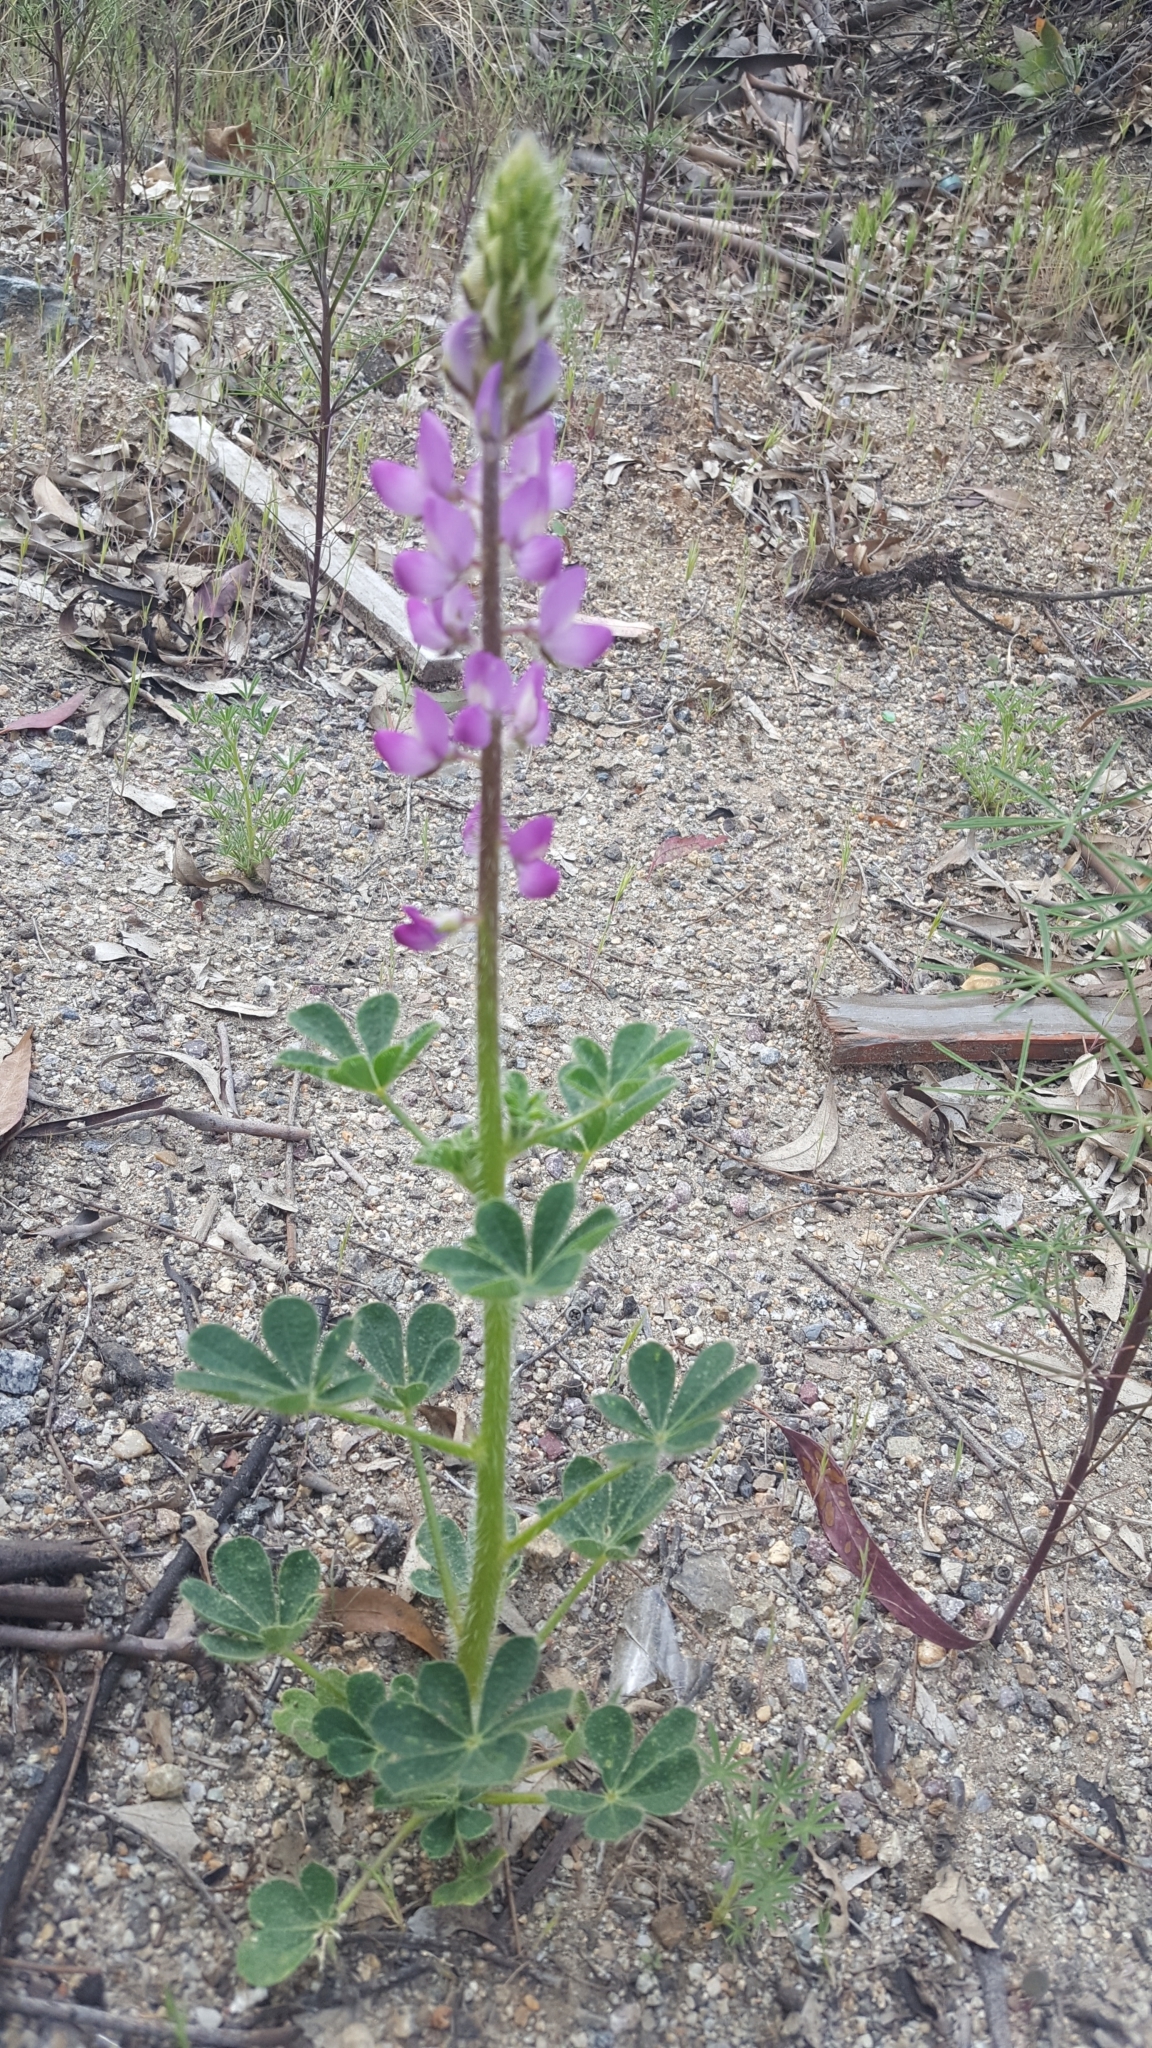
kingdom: Plantae
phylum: Tracheophyta
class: Magnoliopsida
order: Fabales
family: Fabaceae
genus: Lupinus
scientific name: Lupinus hirsutissimus
